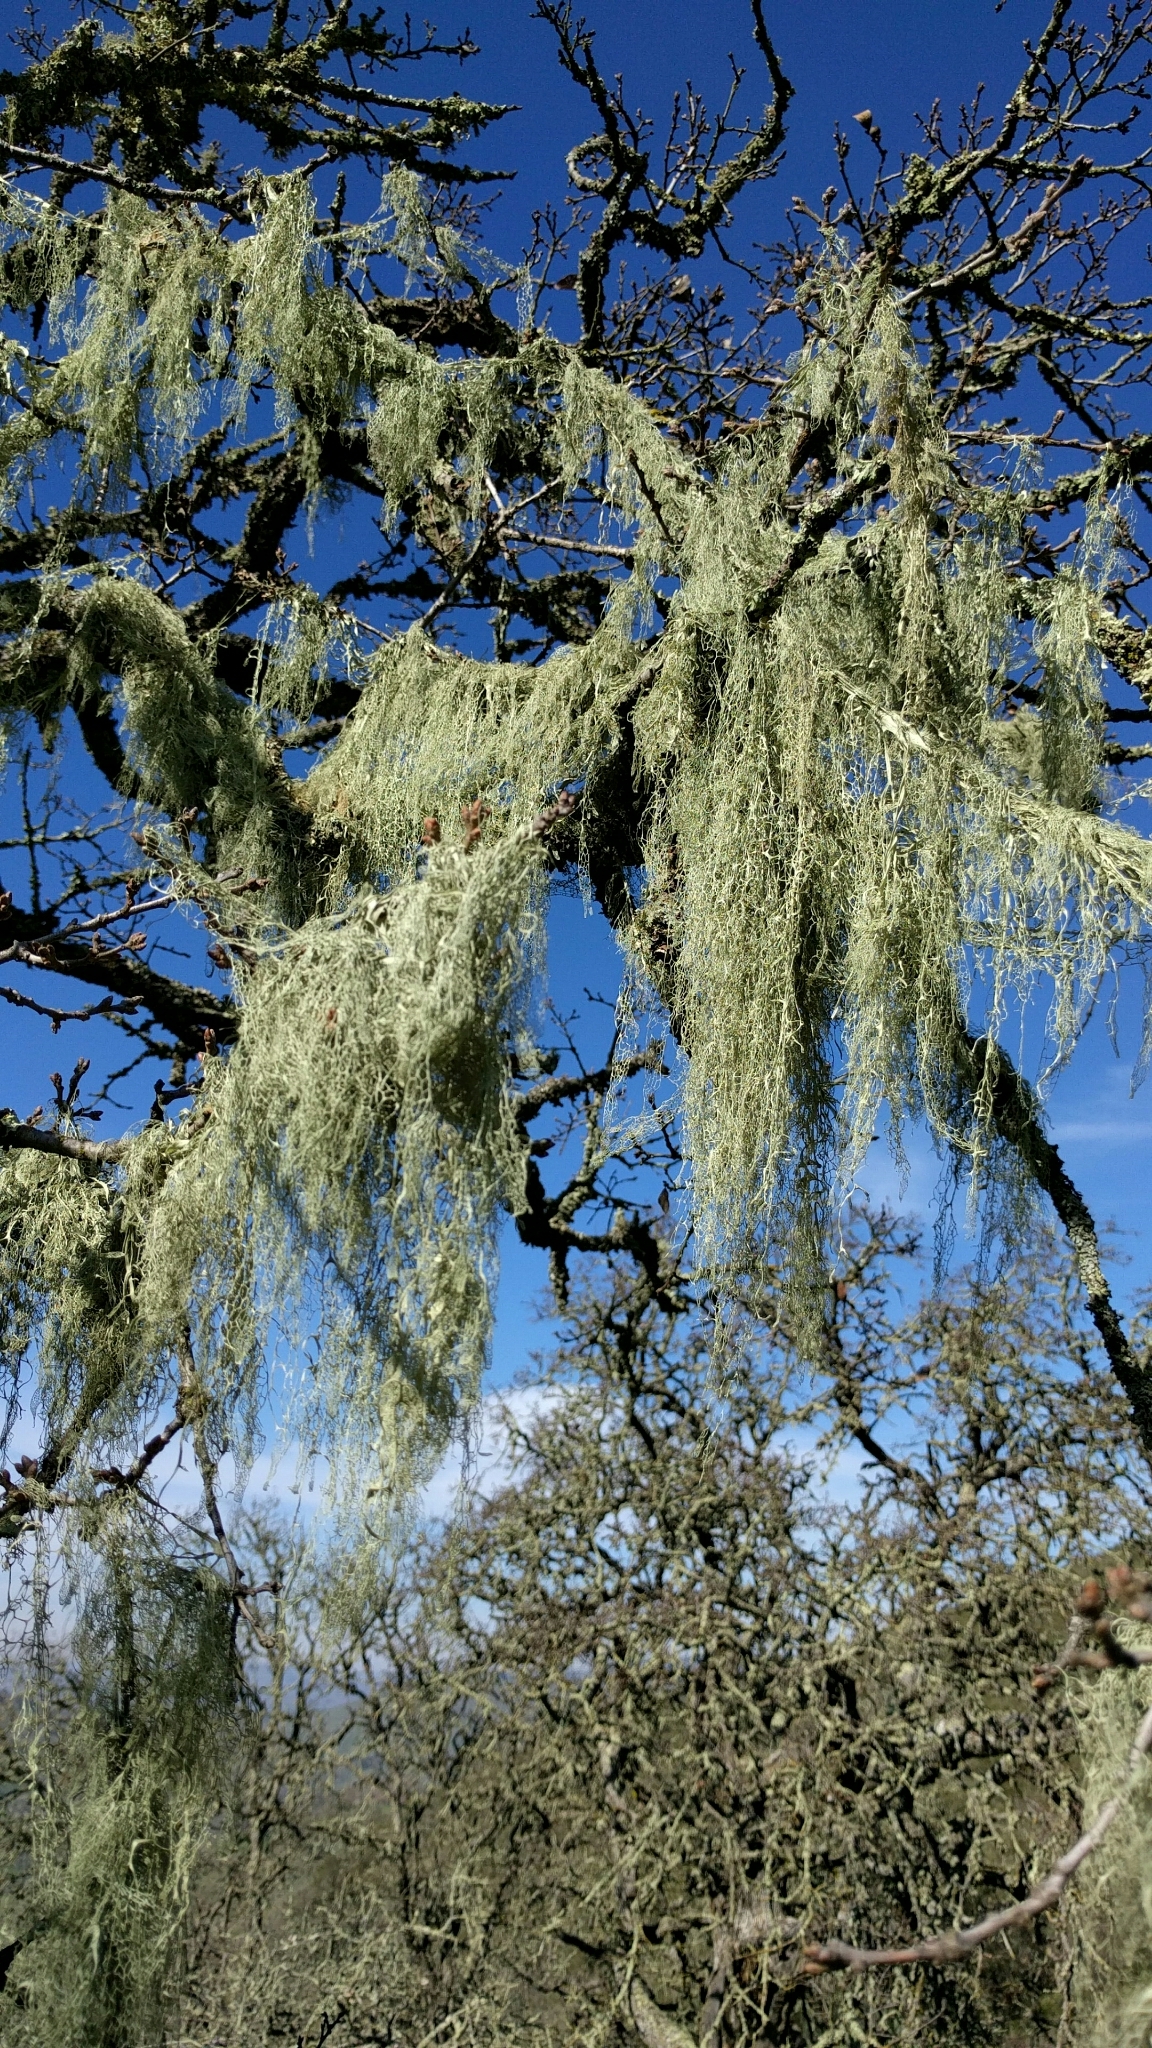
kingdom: Fungi
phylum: Ascomycota
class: Lecanoromycetes
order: Lecanorales
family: Ramalinaceae
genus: Ramalina
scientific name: Ramalina menziesii
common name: Lace lichen
